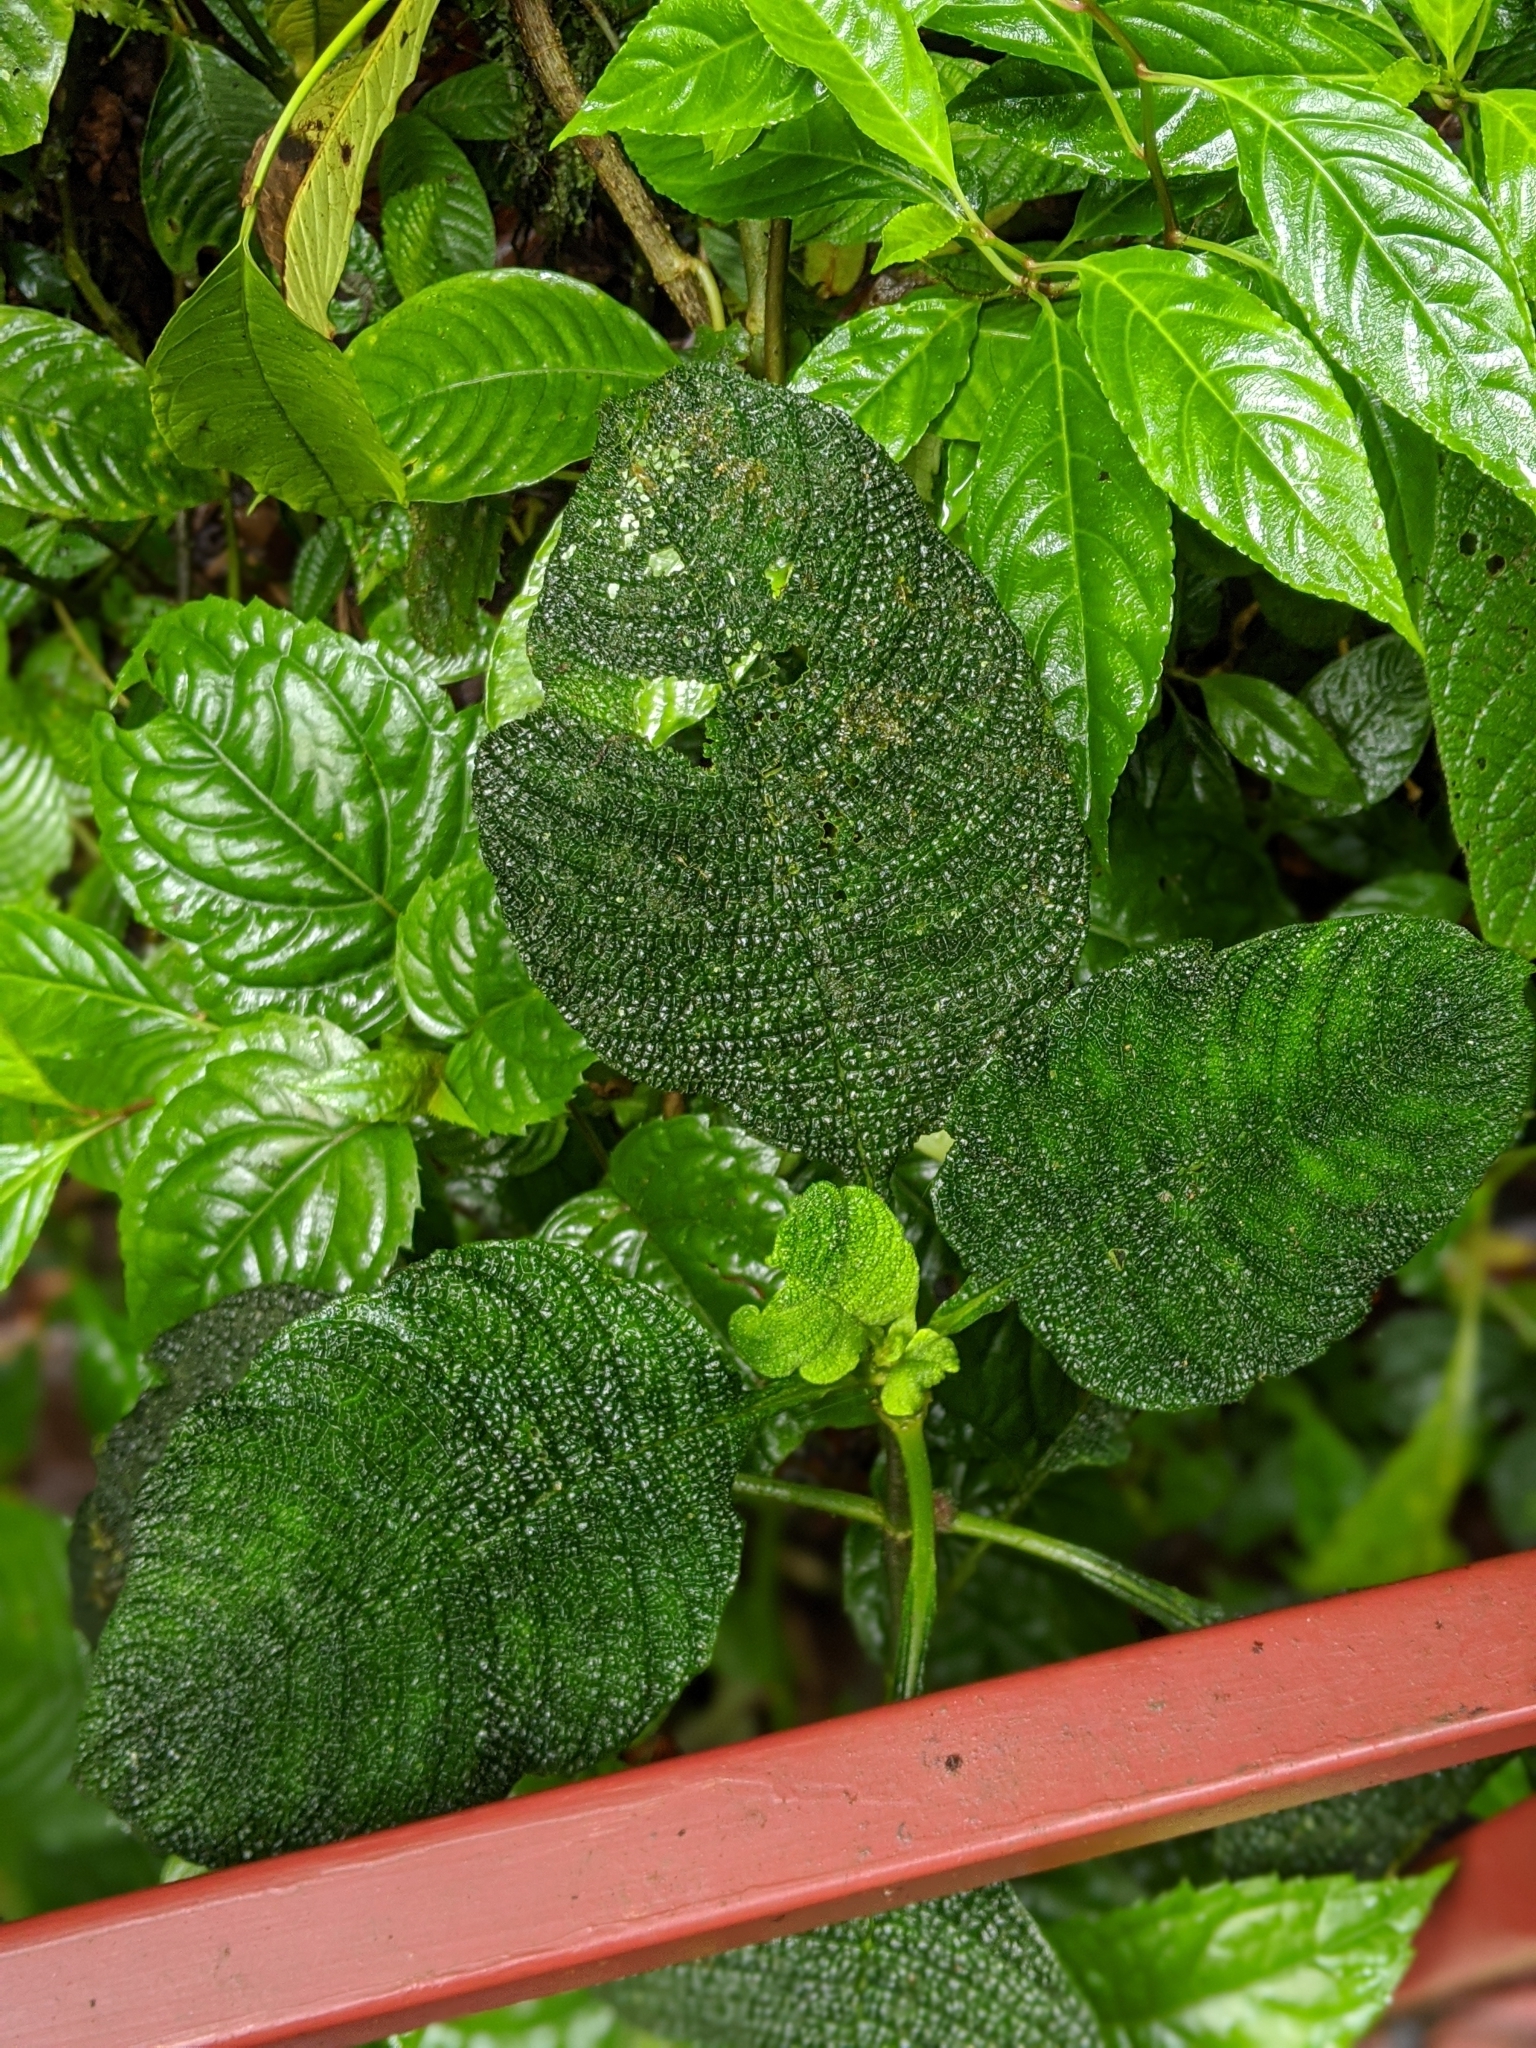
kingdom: Plantae
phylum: Tracheophyta
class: Magnoliopsida
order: Gentianales
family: Rubiaceae
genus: Hoffmannia
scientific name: Hoffmannia areolata
